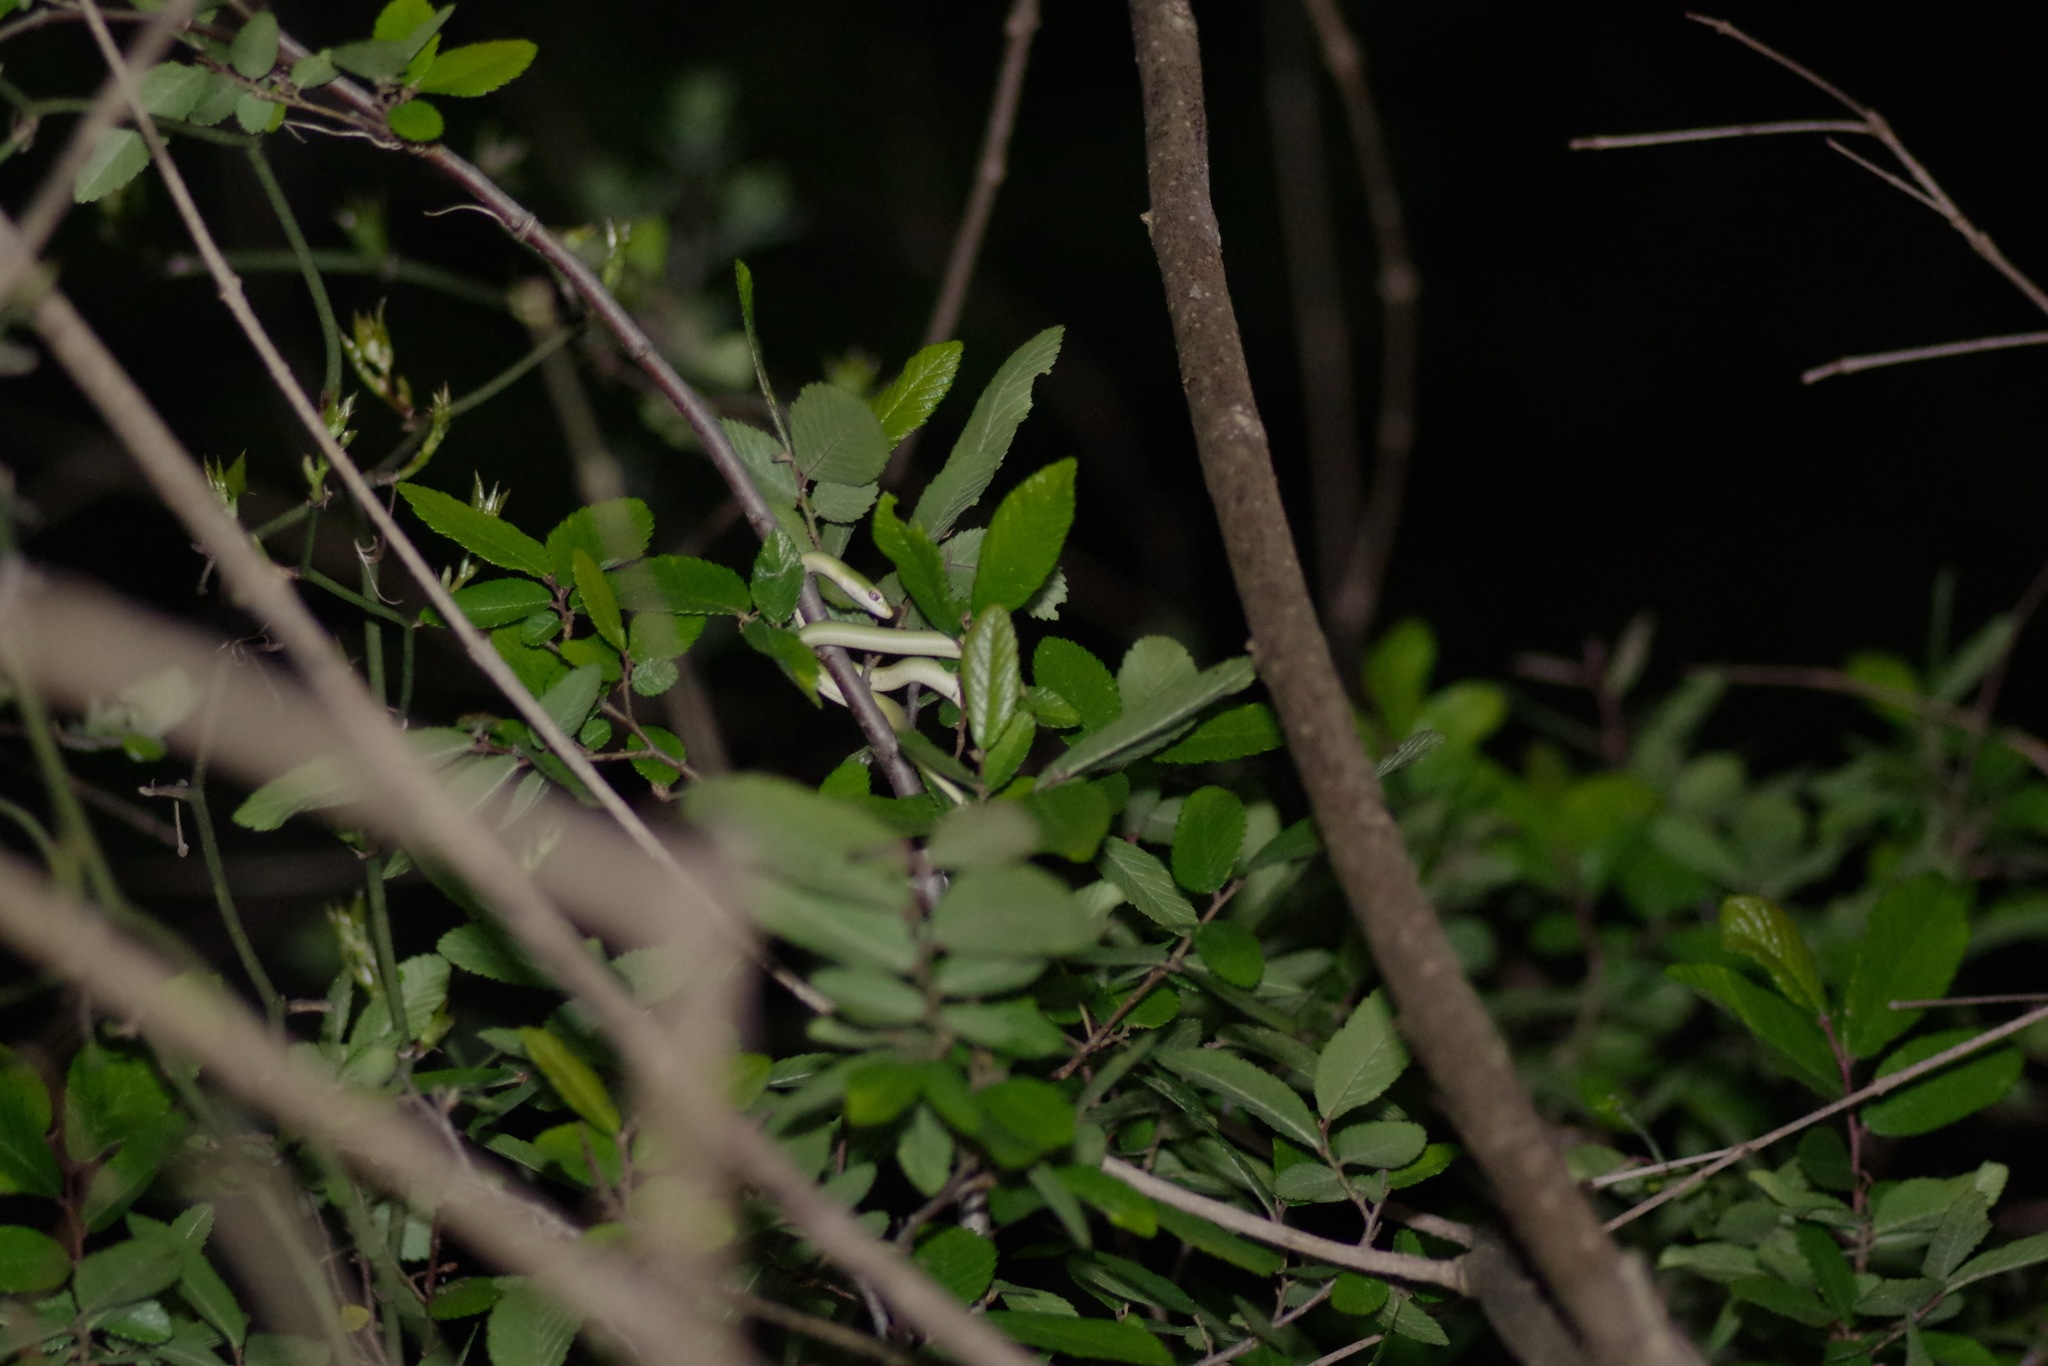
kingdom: Animalia
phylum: Chordata
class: Squamata
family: Colubridae
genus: Opheodrys
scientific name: Opheodrys aestivus
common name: Rough greensnake
